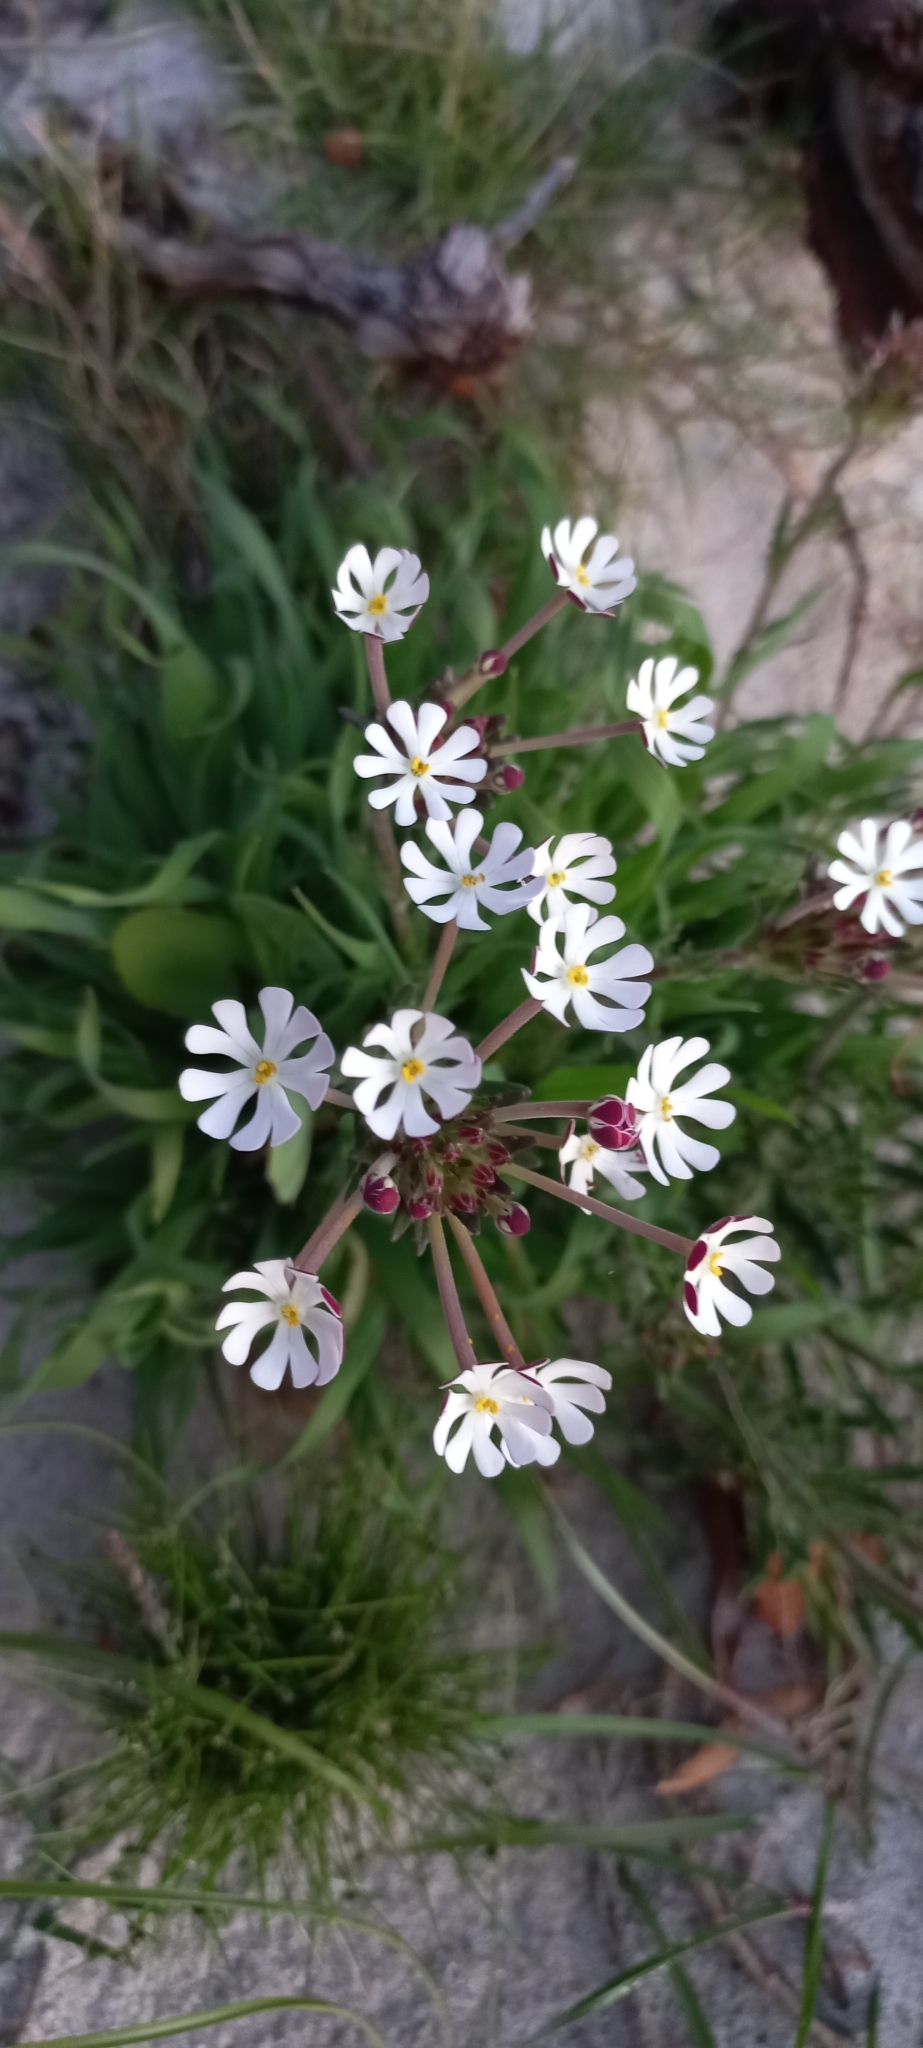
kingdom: Plantae
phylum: Tracheophyta
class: Magnoliopsida
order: Lamiales
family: Scrophulariaceae
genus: Zaluzianskya
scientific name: Zaluzianskya capensis
